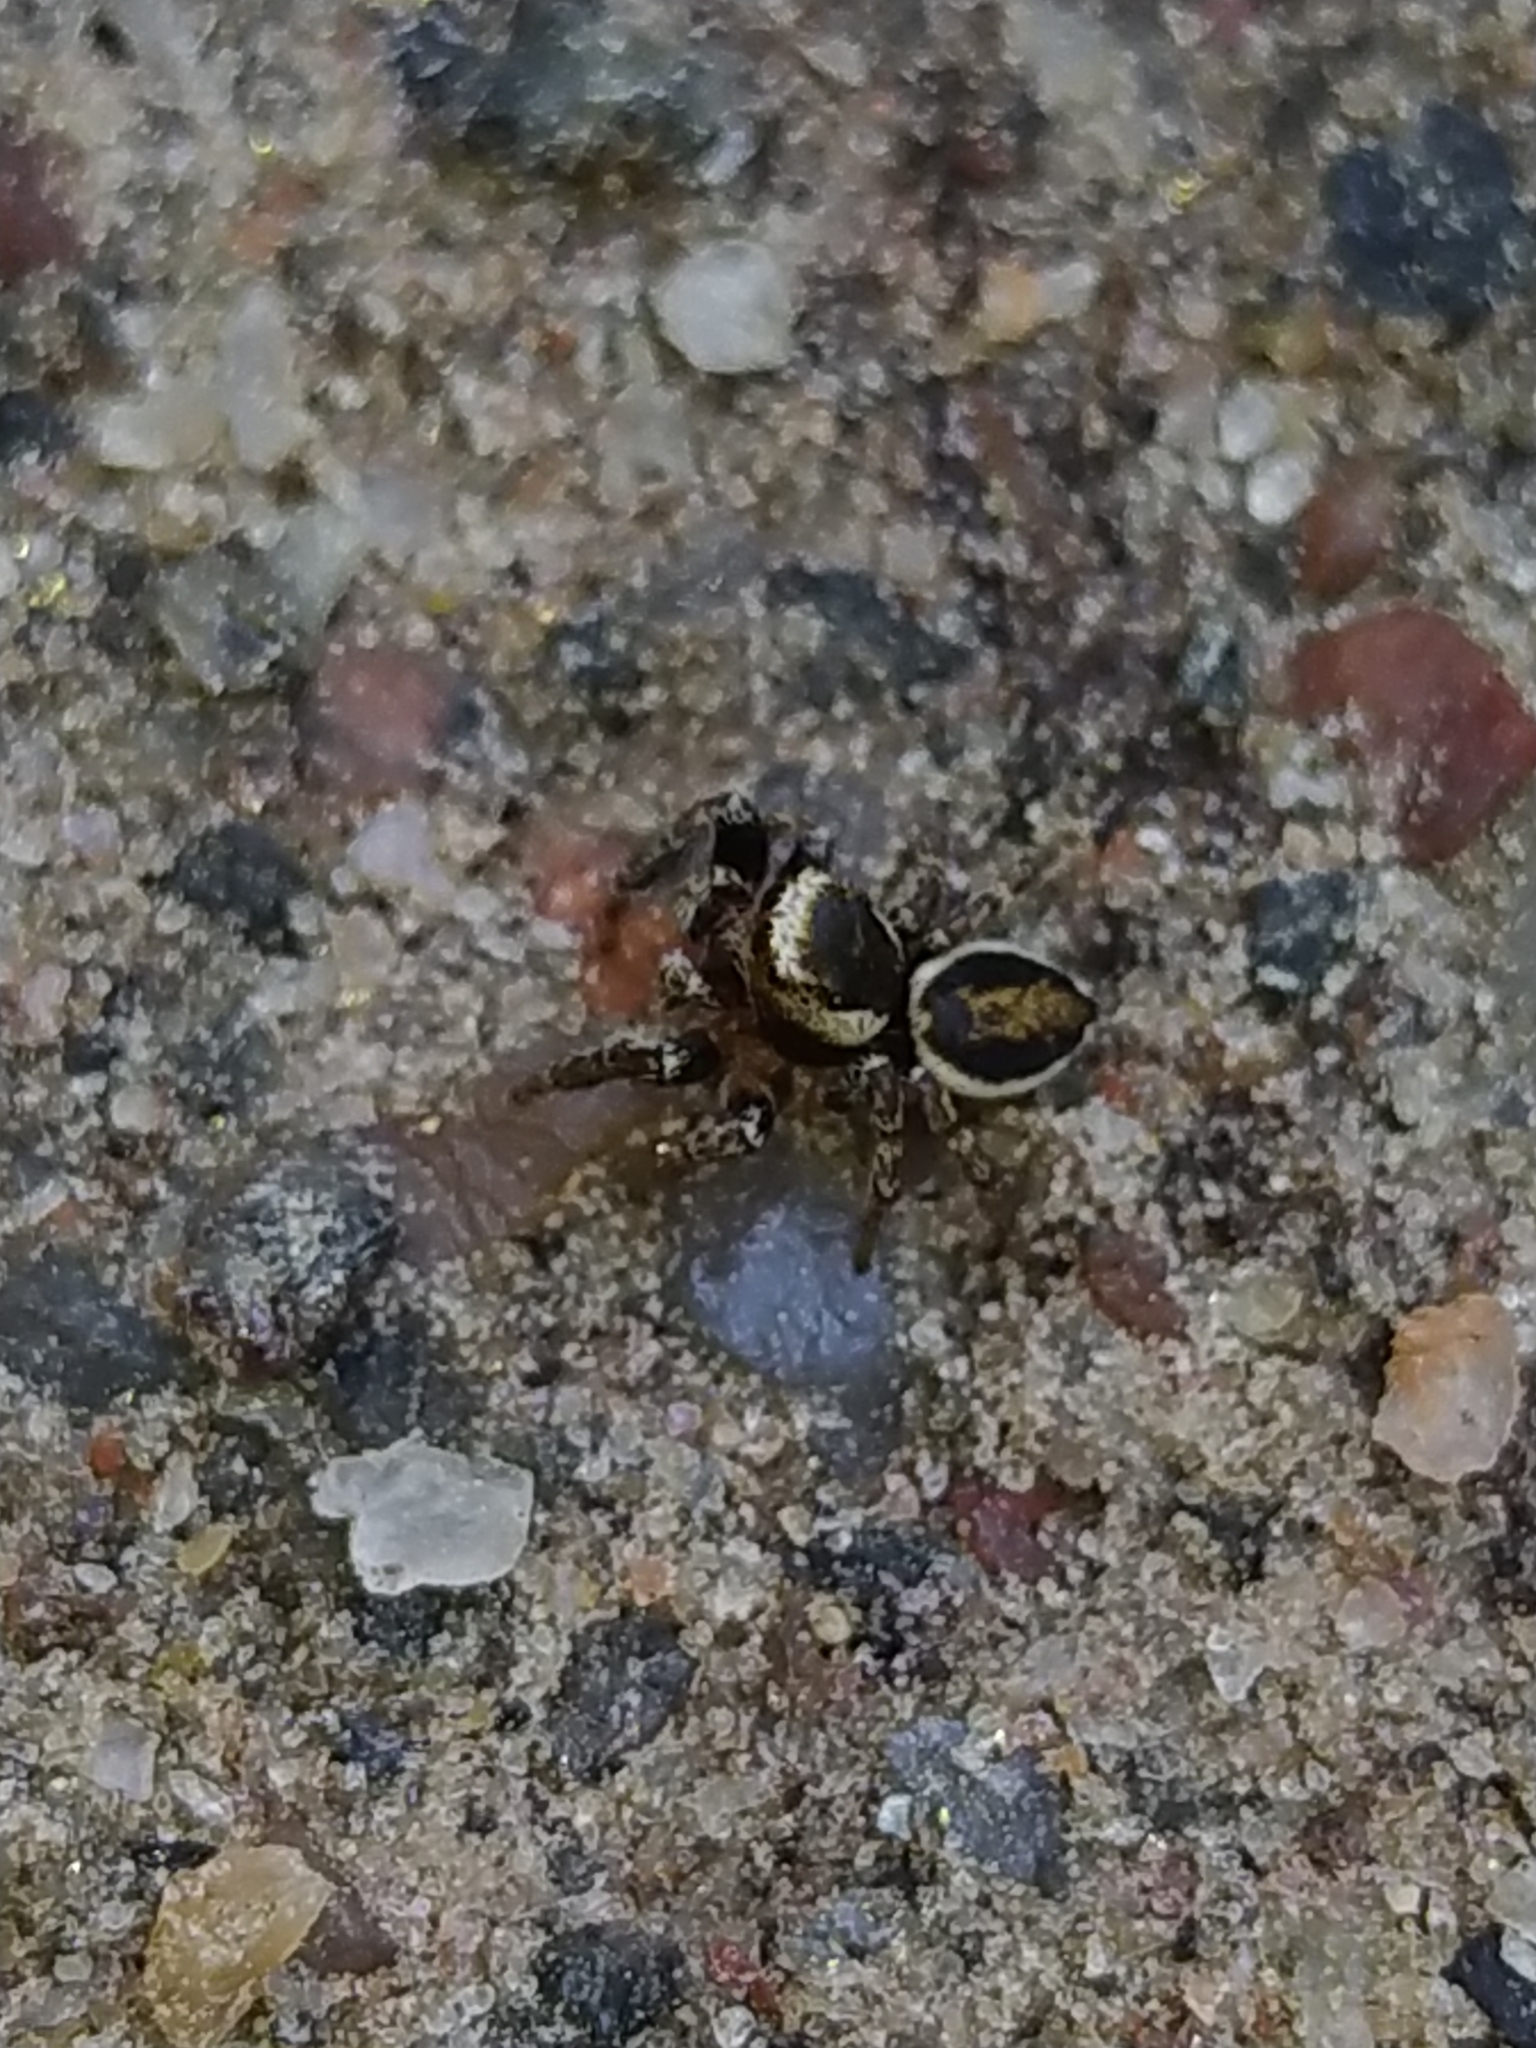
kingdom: Animalia
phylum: Arthropoda
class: Arachnida
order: Araneae
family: Salticidae
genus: Evarcha
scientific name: Evarcha falcata
